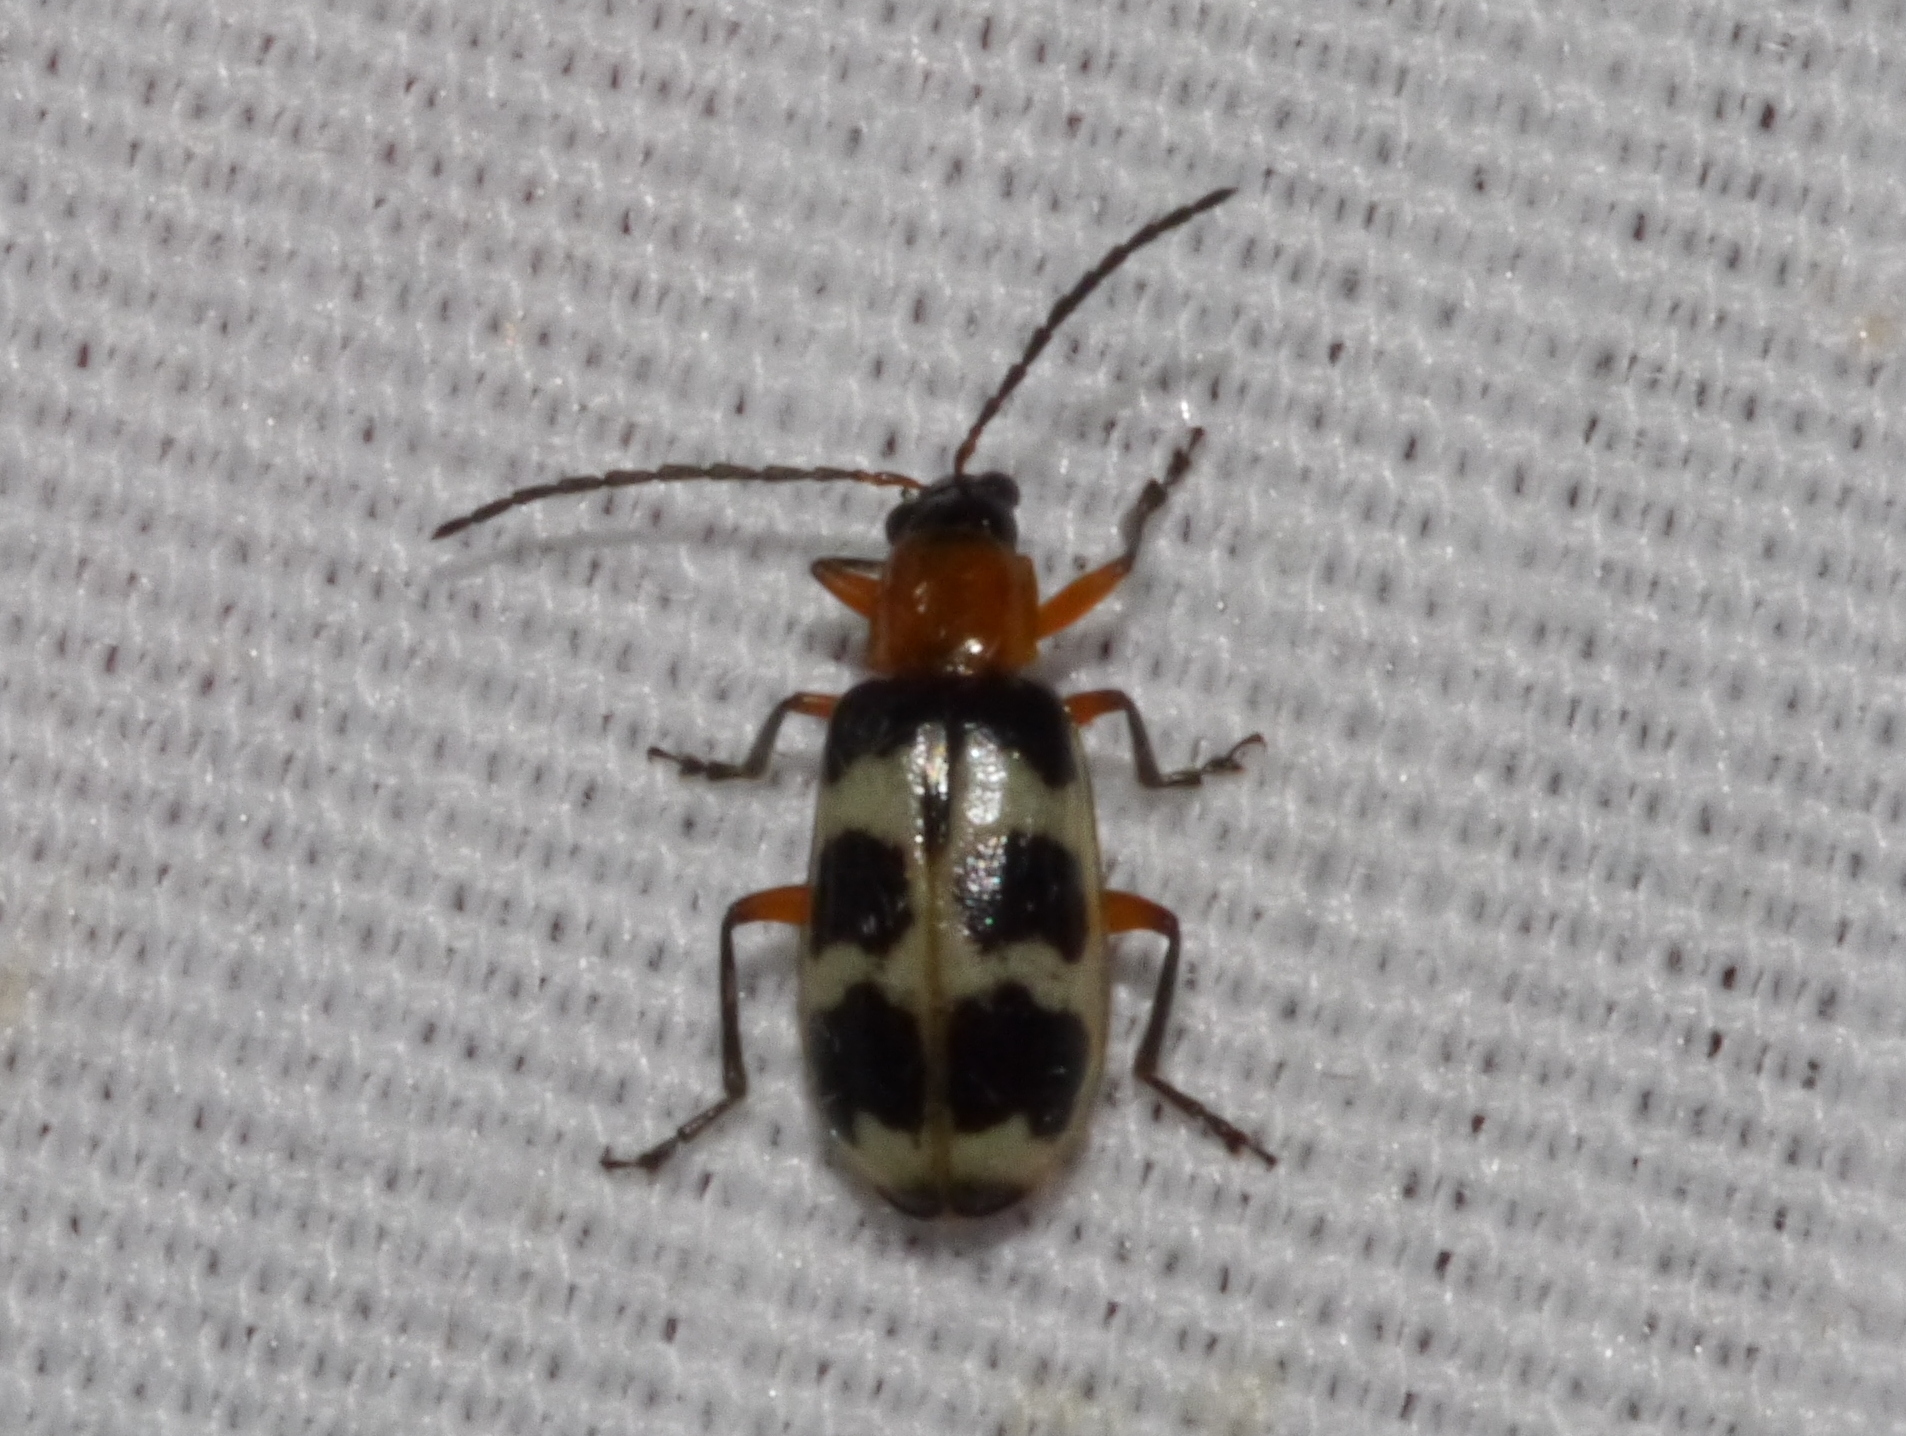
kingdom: Animalia
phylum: Arthropoda
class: Insecta
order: Coleoptera
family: Chrysomelidae
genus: Paranapiacaba
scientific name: Paranapiacaba tricincta
